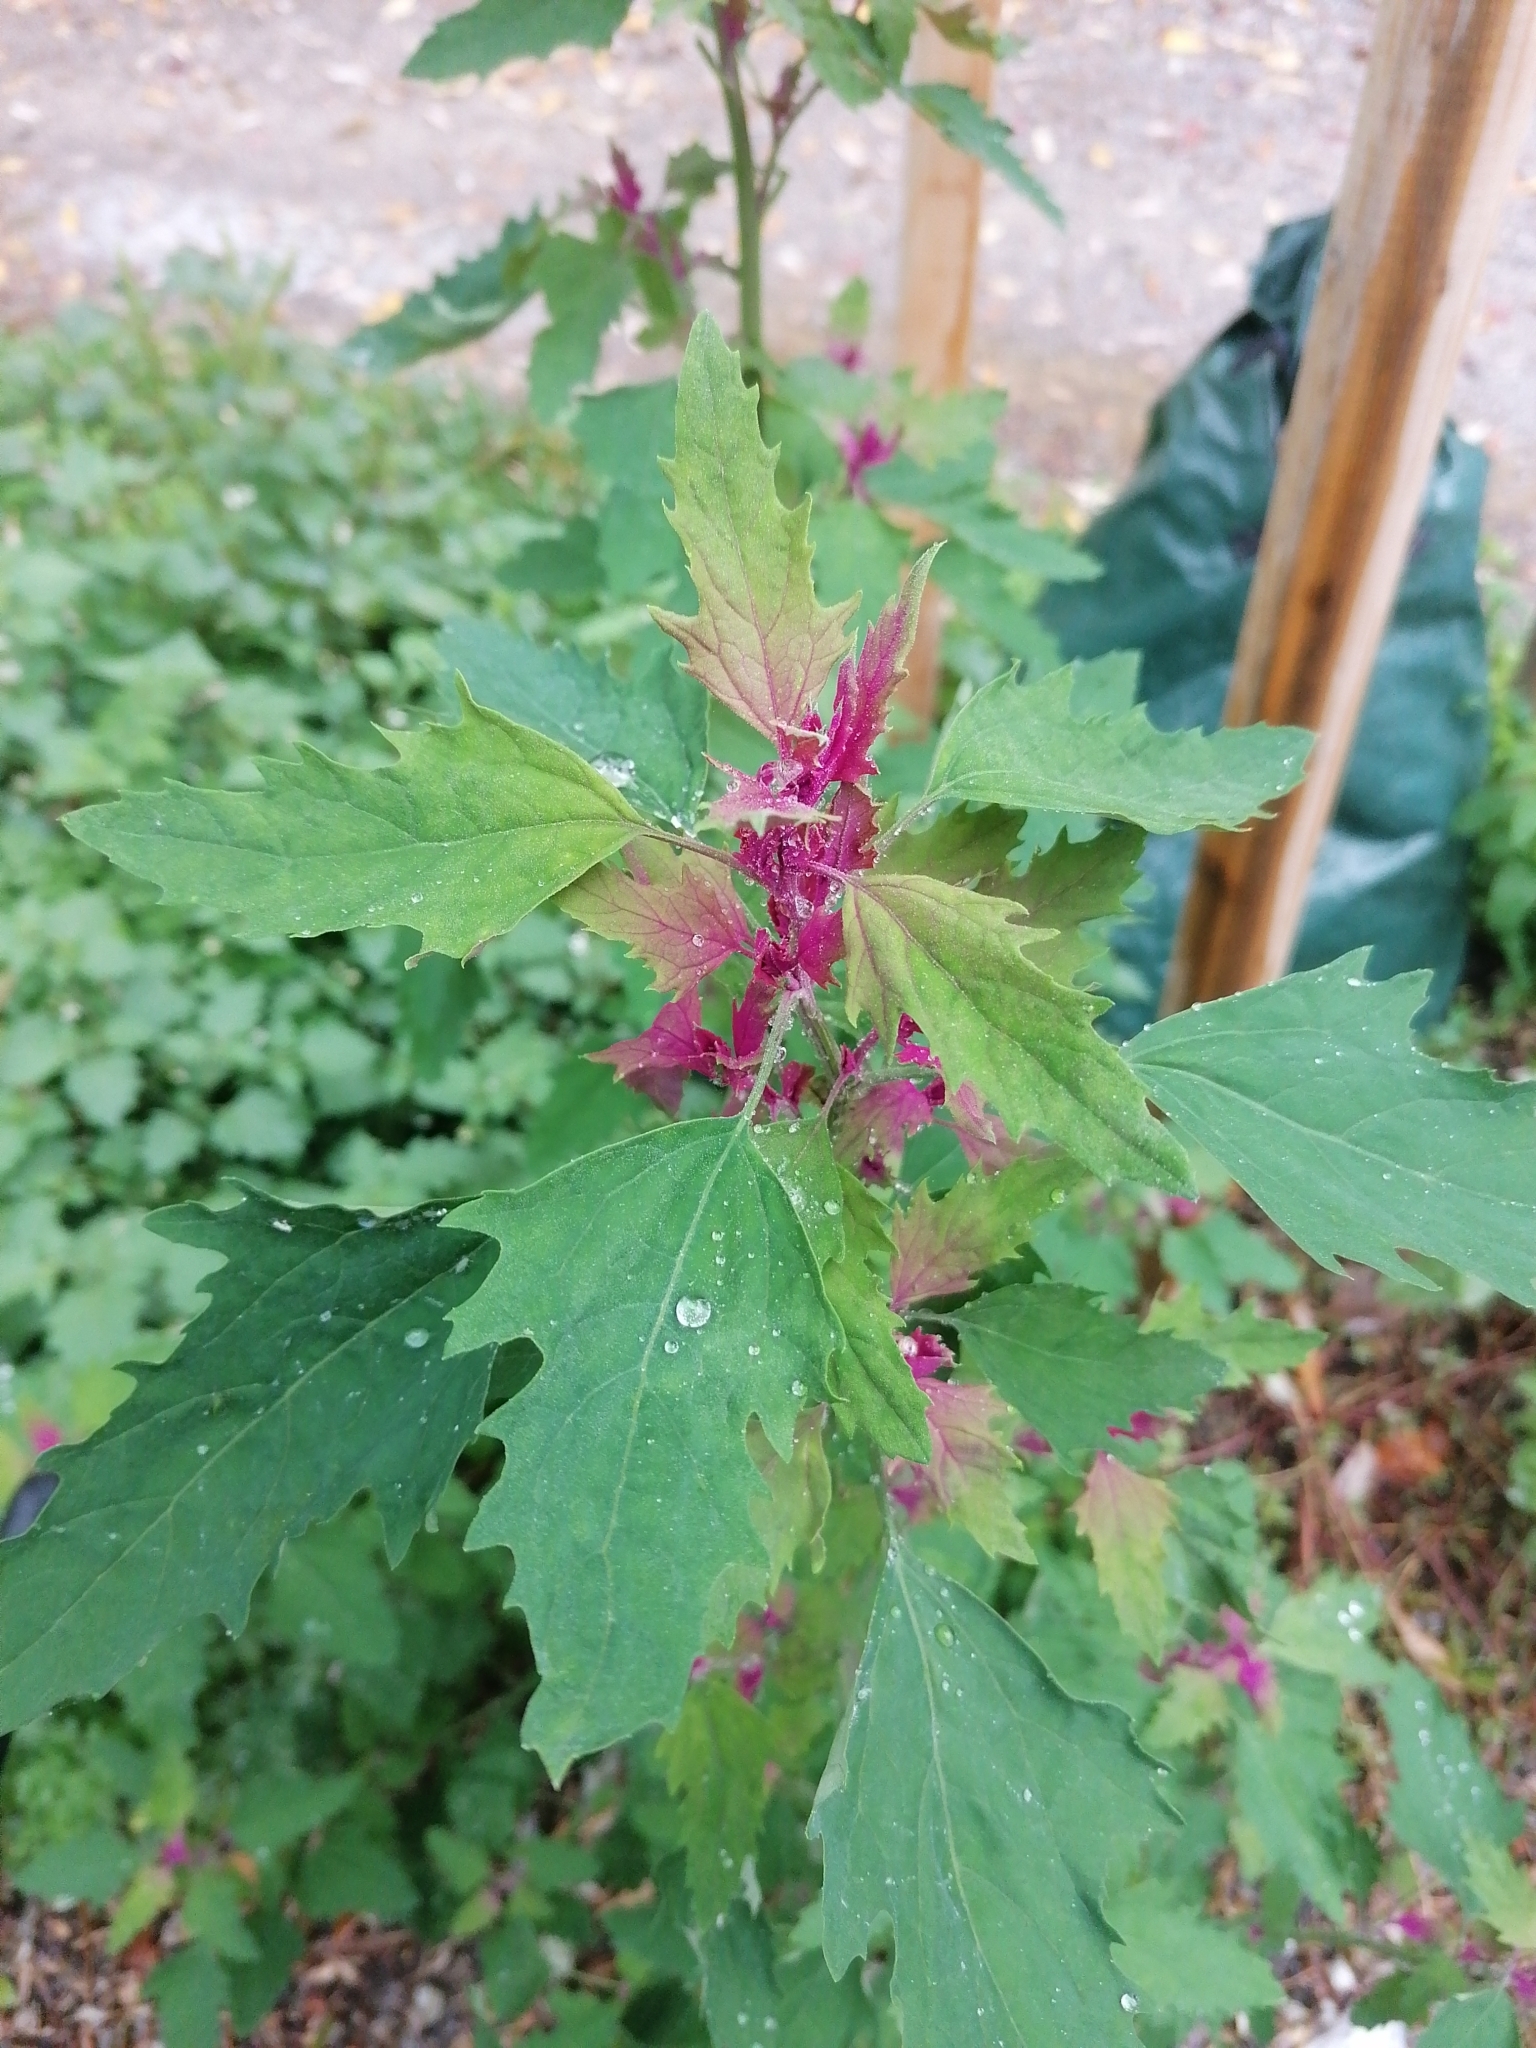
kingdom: Plantae
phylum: Tracheophyta
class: Magnoliopsida
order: Caryophyllales
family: Amaranthaceae
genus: Chenopodium
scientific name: Chenopodium giganteum
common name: Magentaspreen
